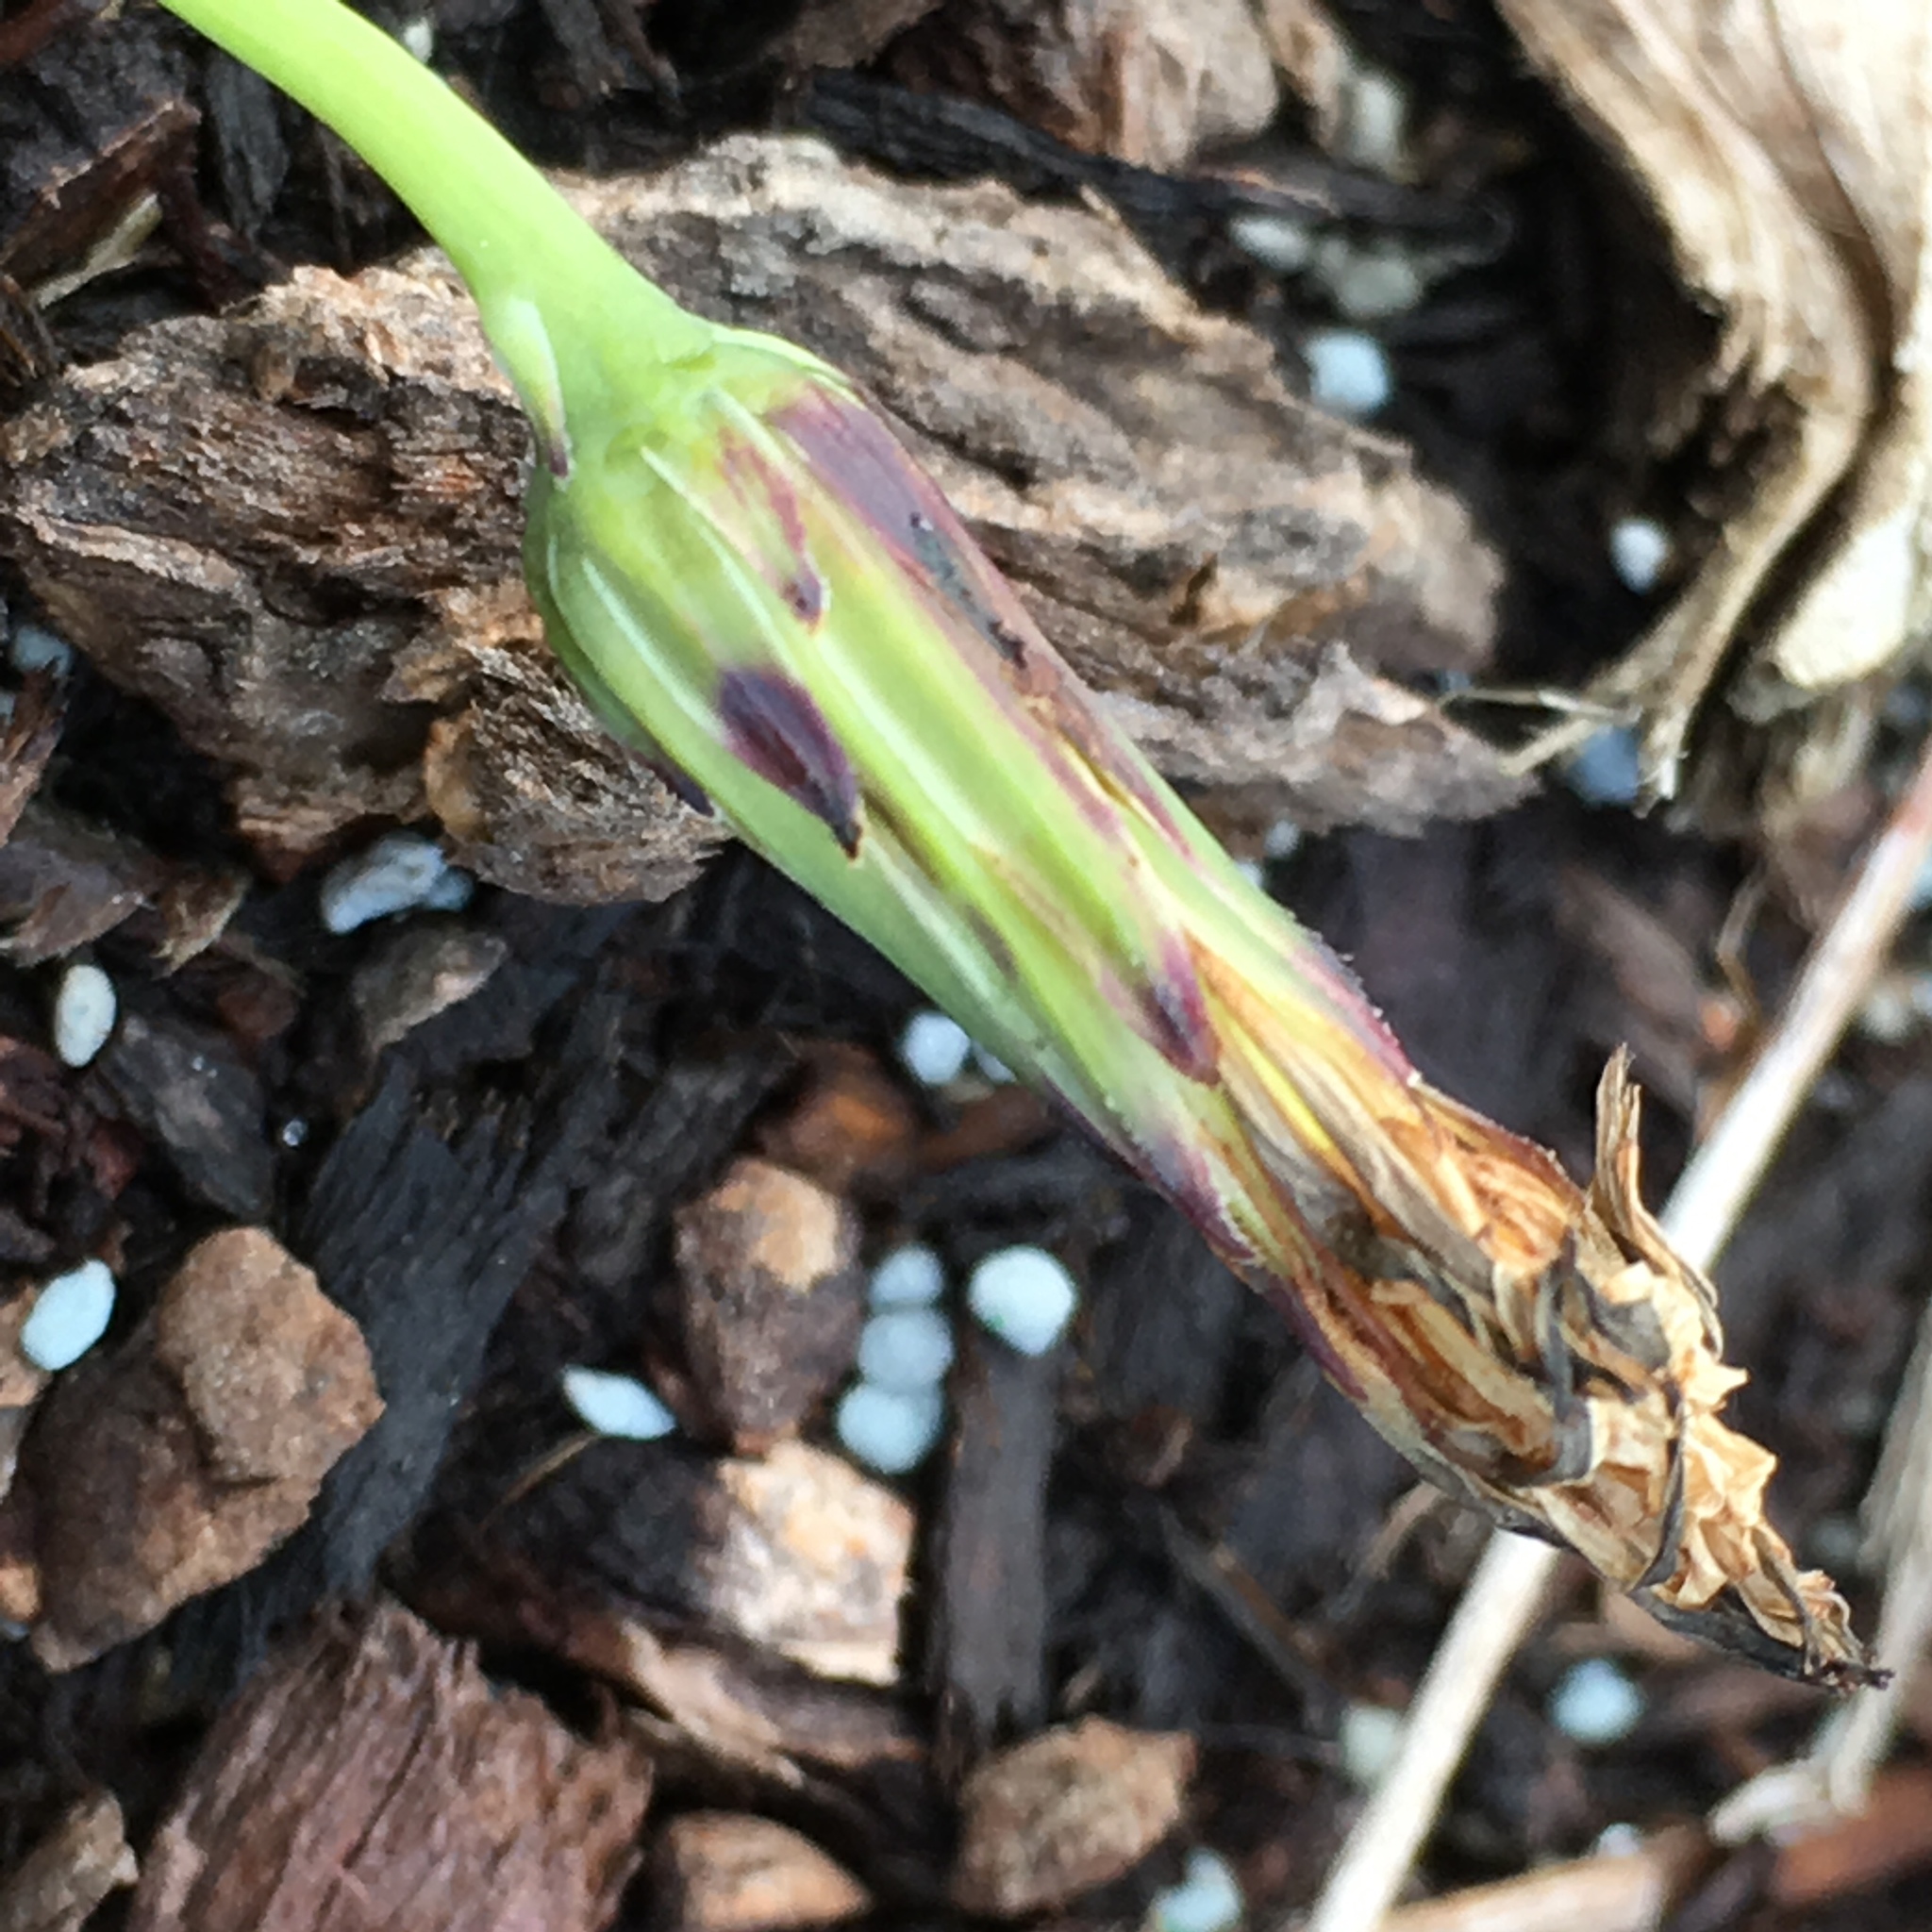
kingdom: Plantae
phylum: Tracheophyta
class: Magnoliopsida
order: Asterales
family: Asteraceae
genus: Hypochaeris
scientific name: Hypochaeris radicata
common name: Flatweed
